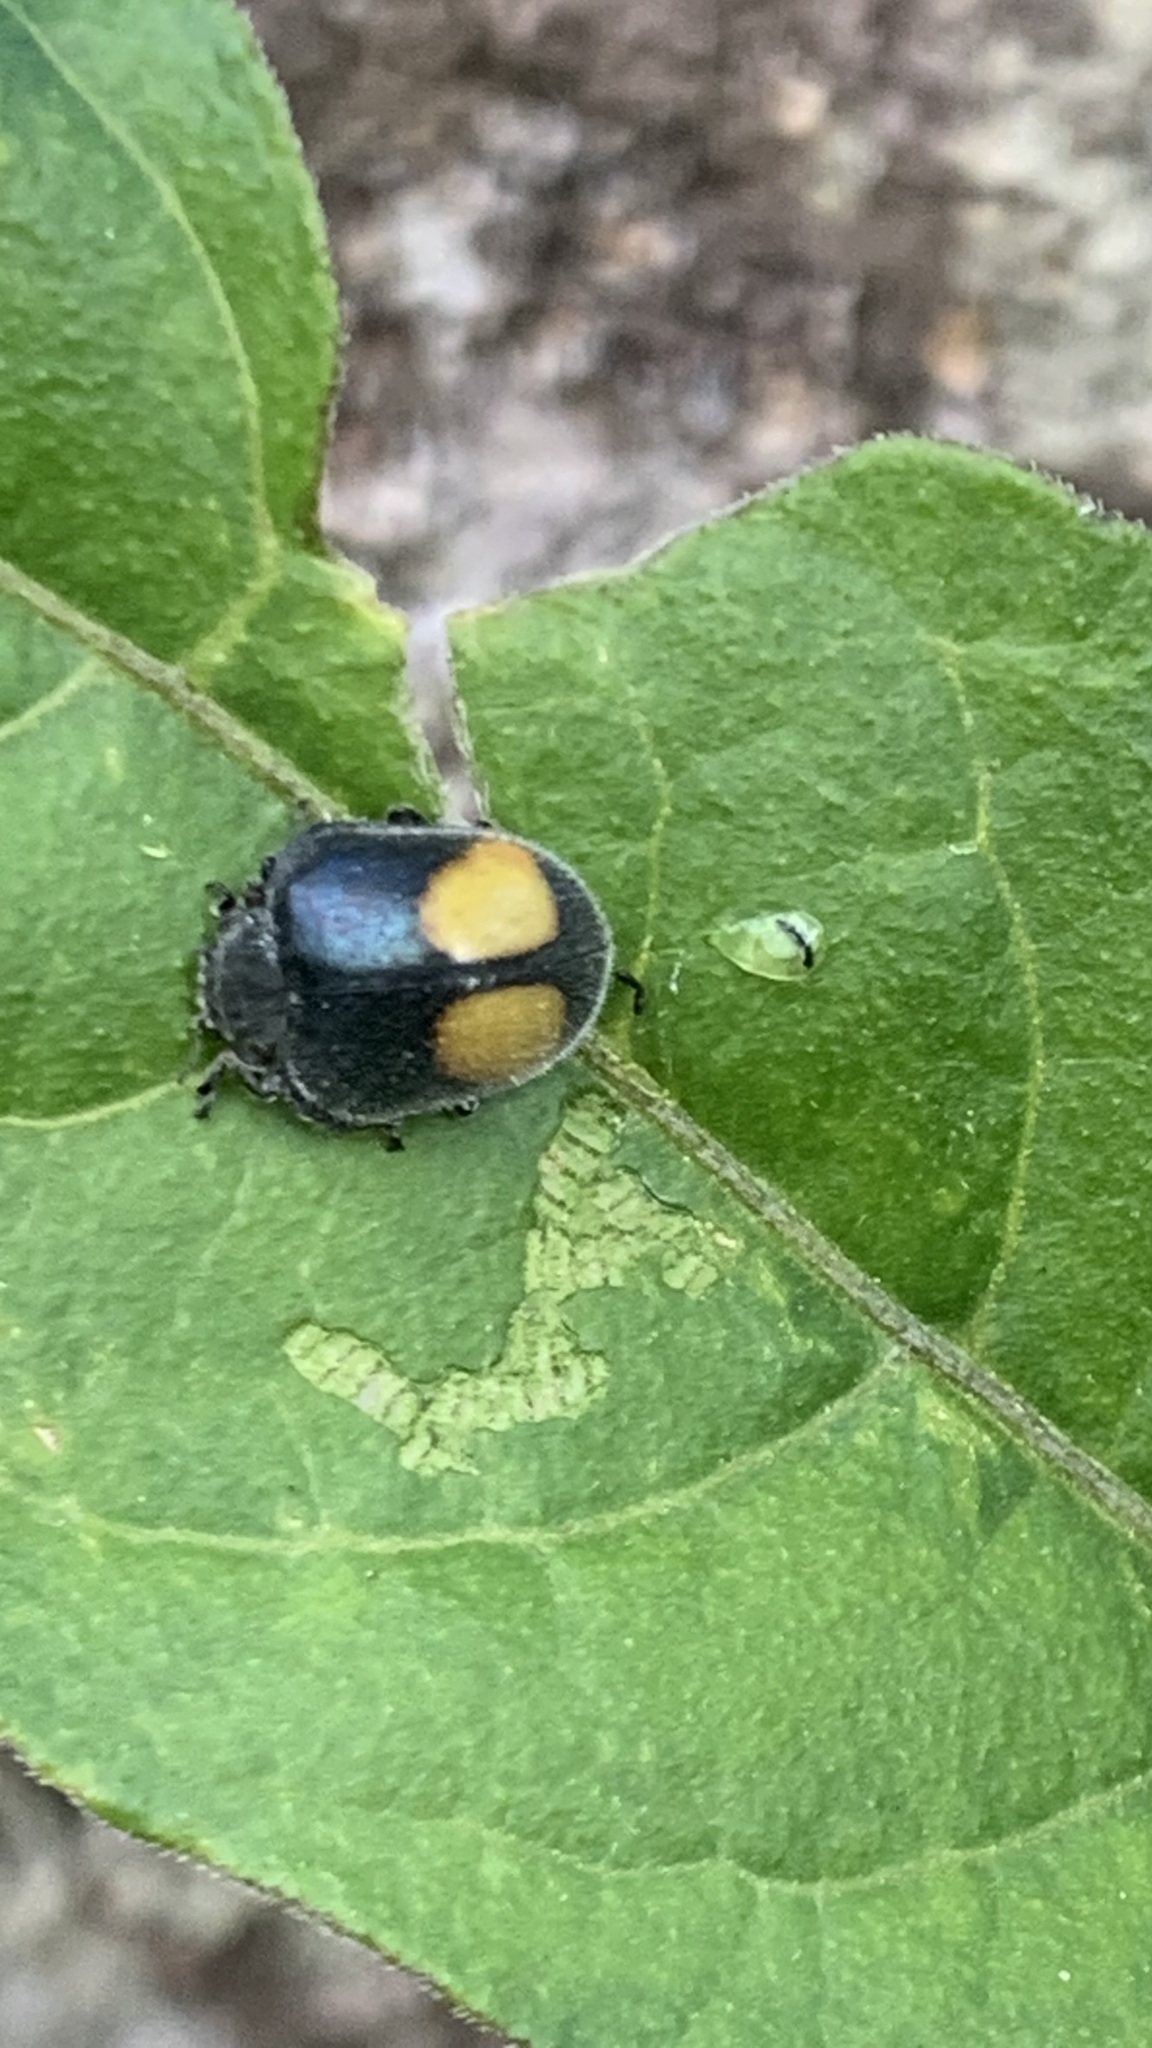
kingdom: Animalia
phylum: Arthropoda
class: Insecta
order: Coleoptera
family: Coccinellidae
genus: Epilachna
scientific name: Epilachna sellata
